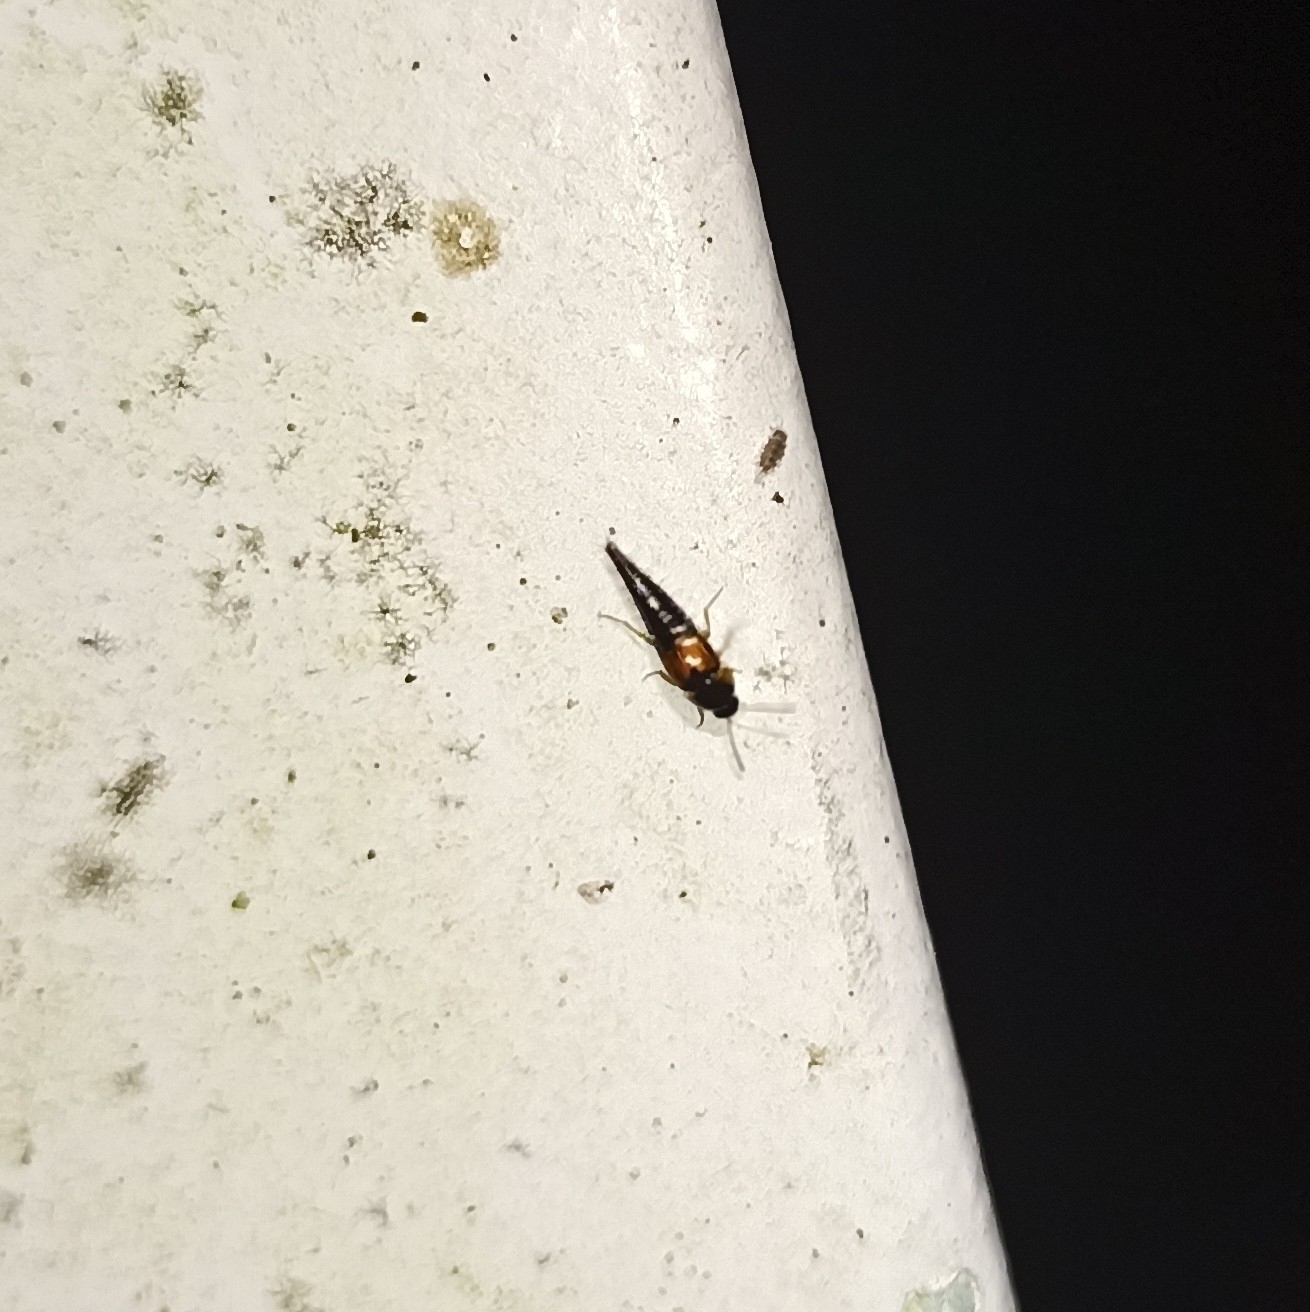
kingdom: Animalia
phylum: Arthropoda
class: Insecta
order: Coleoptera
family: Staphylinidae
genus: Tachyporus
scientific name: Tachyporus hypnorum
